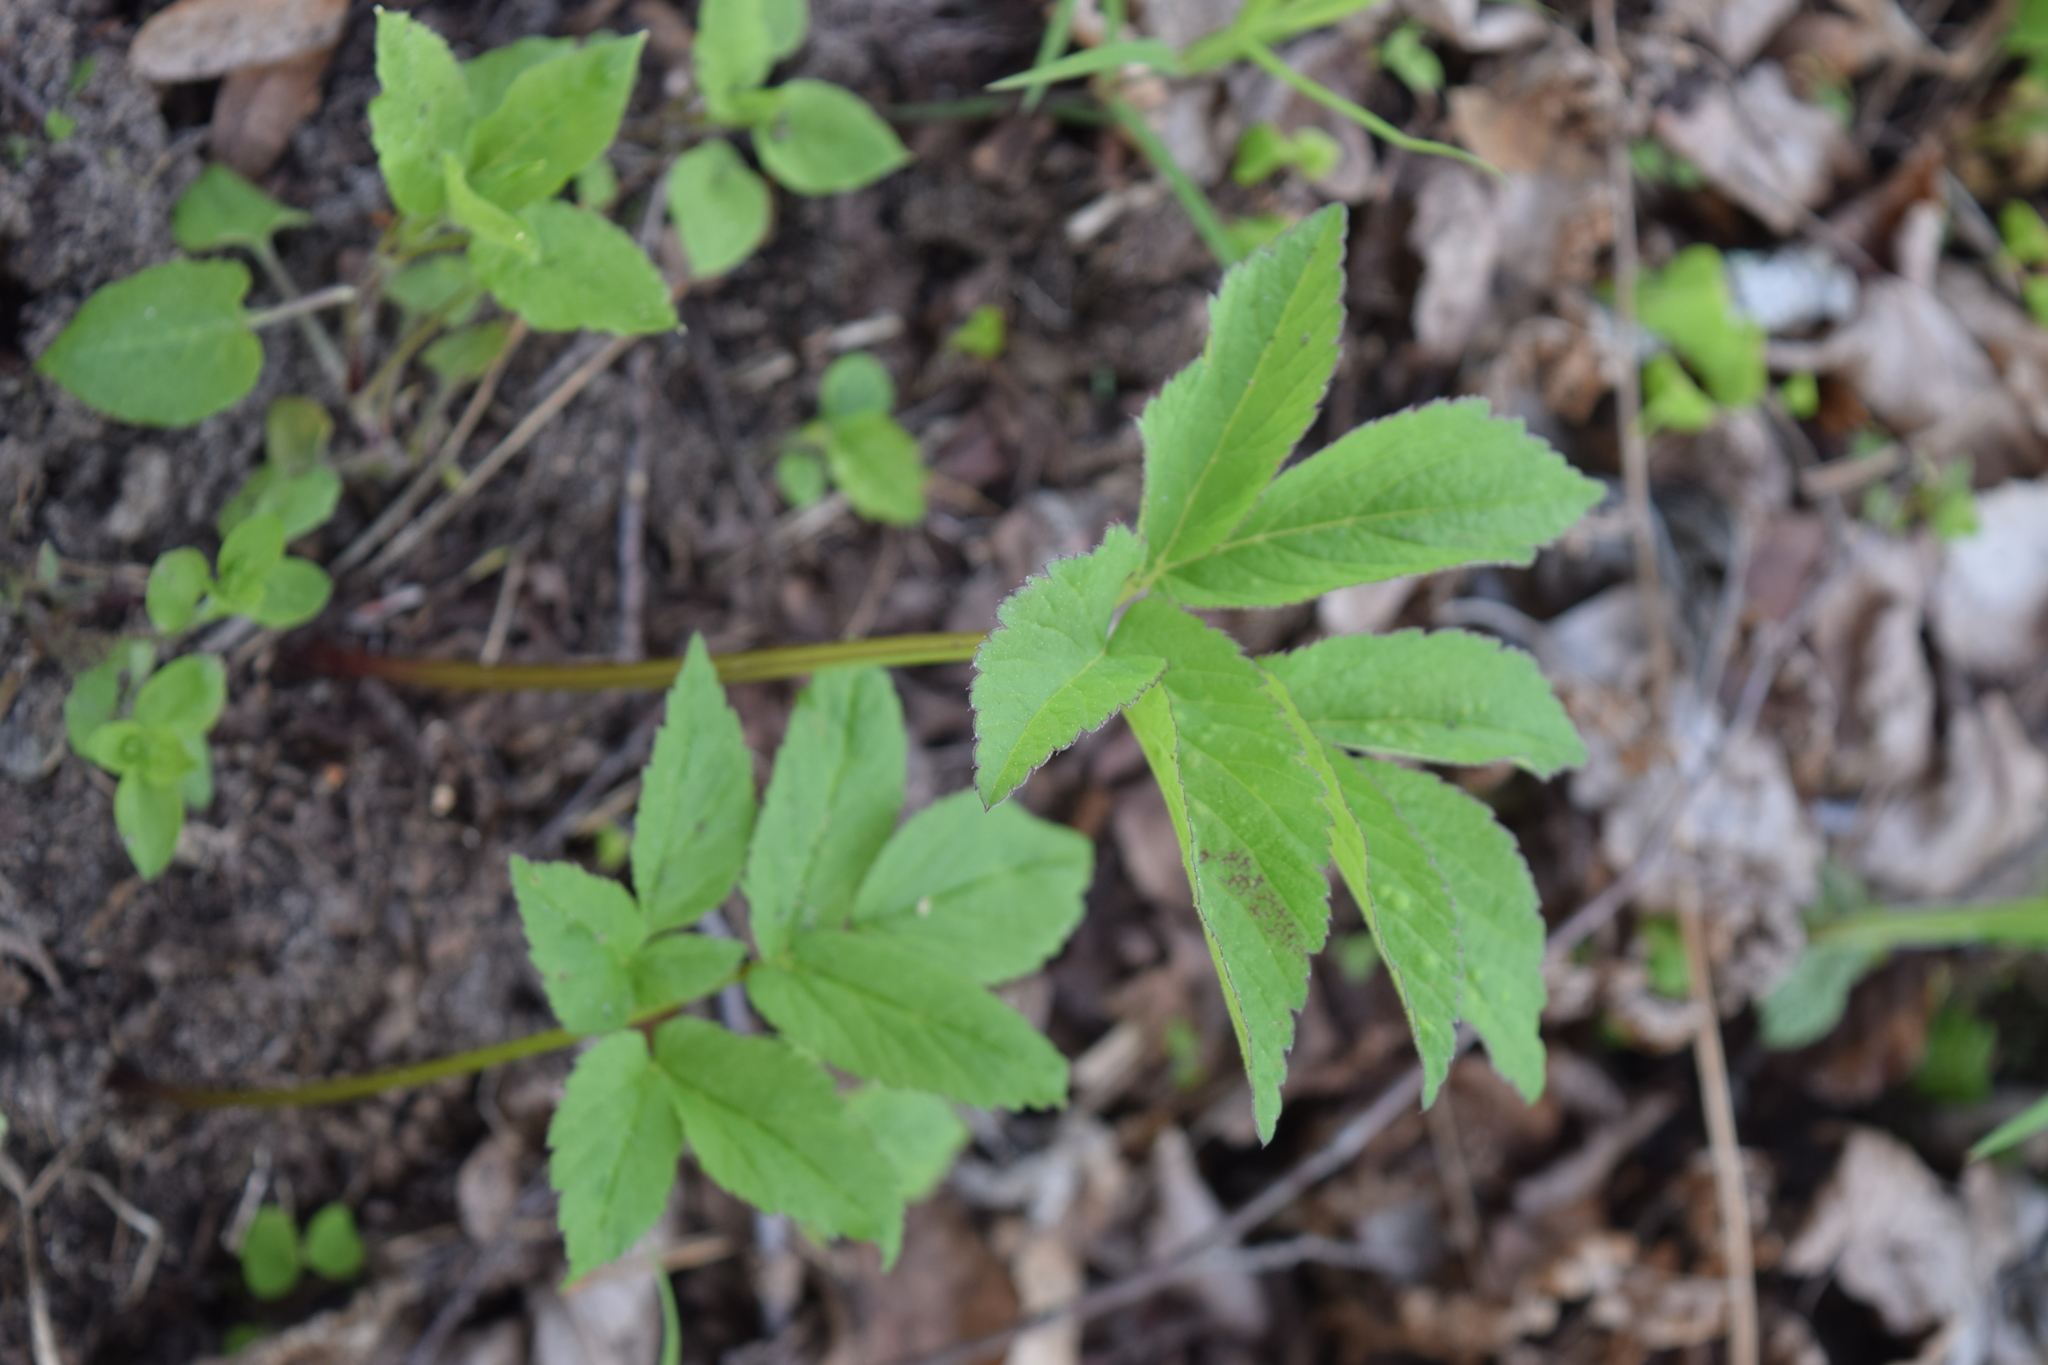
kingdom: Plantae
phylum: Tracheophyta
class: Magnoliopsida
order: Apiales
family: Apiaceae
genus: Aegopodium
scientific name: Aegopodium podagraria
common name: Ground-elder
